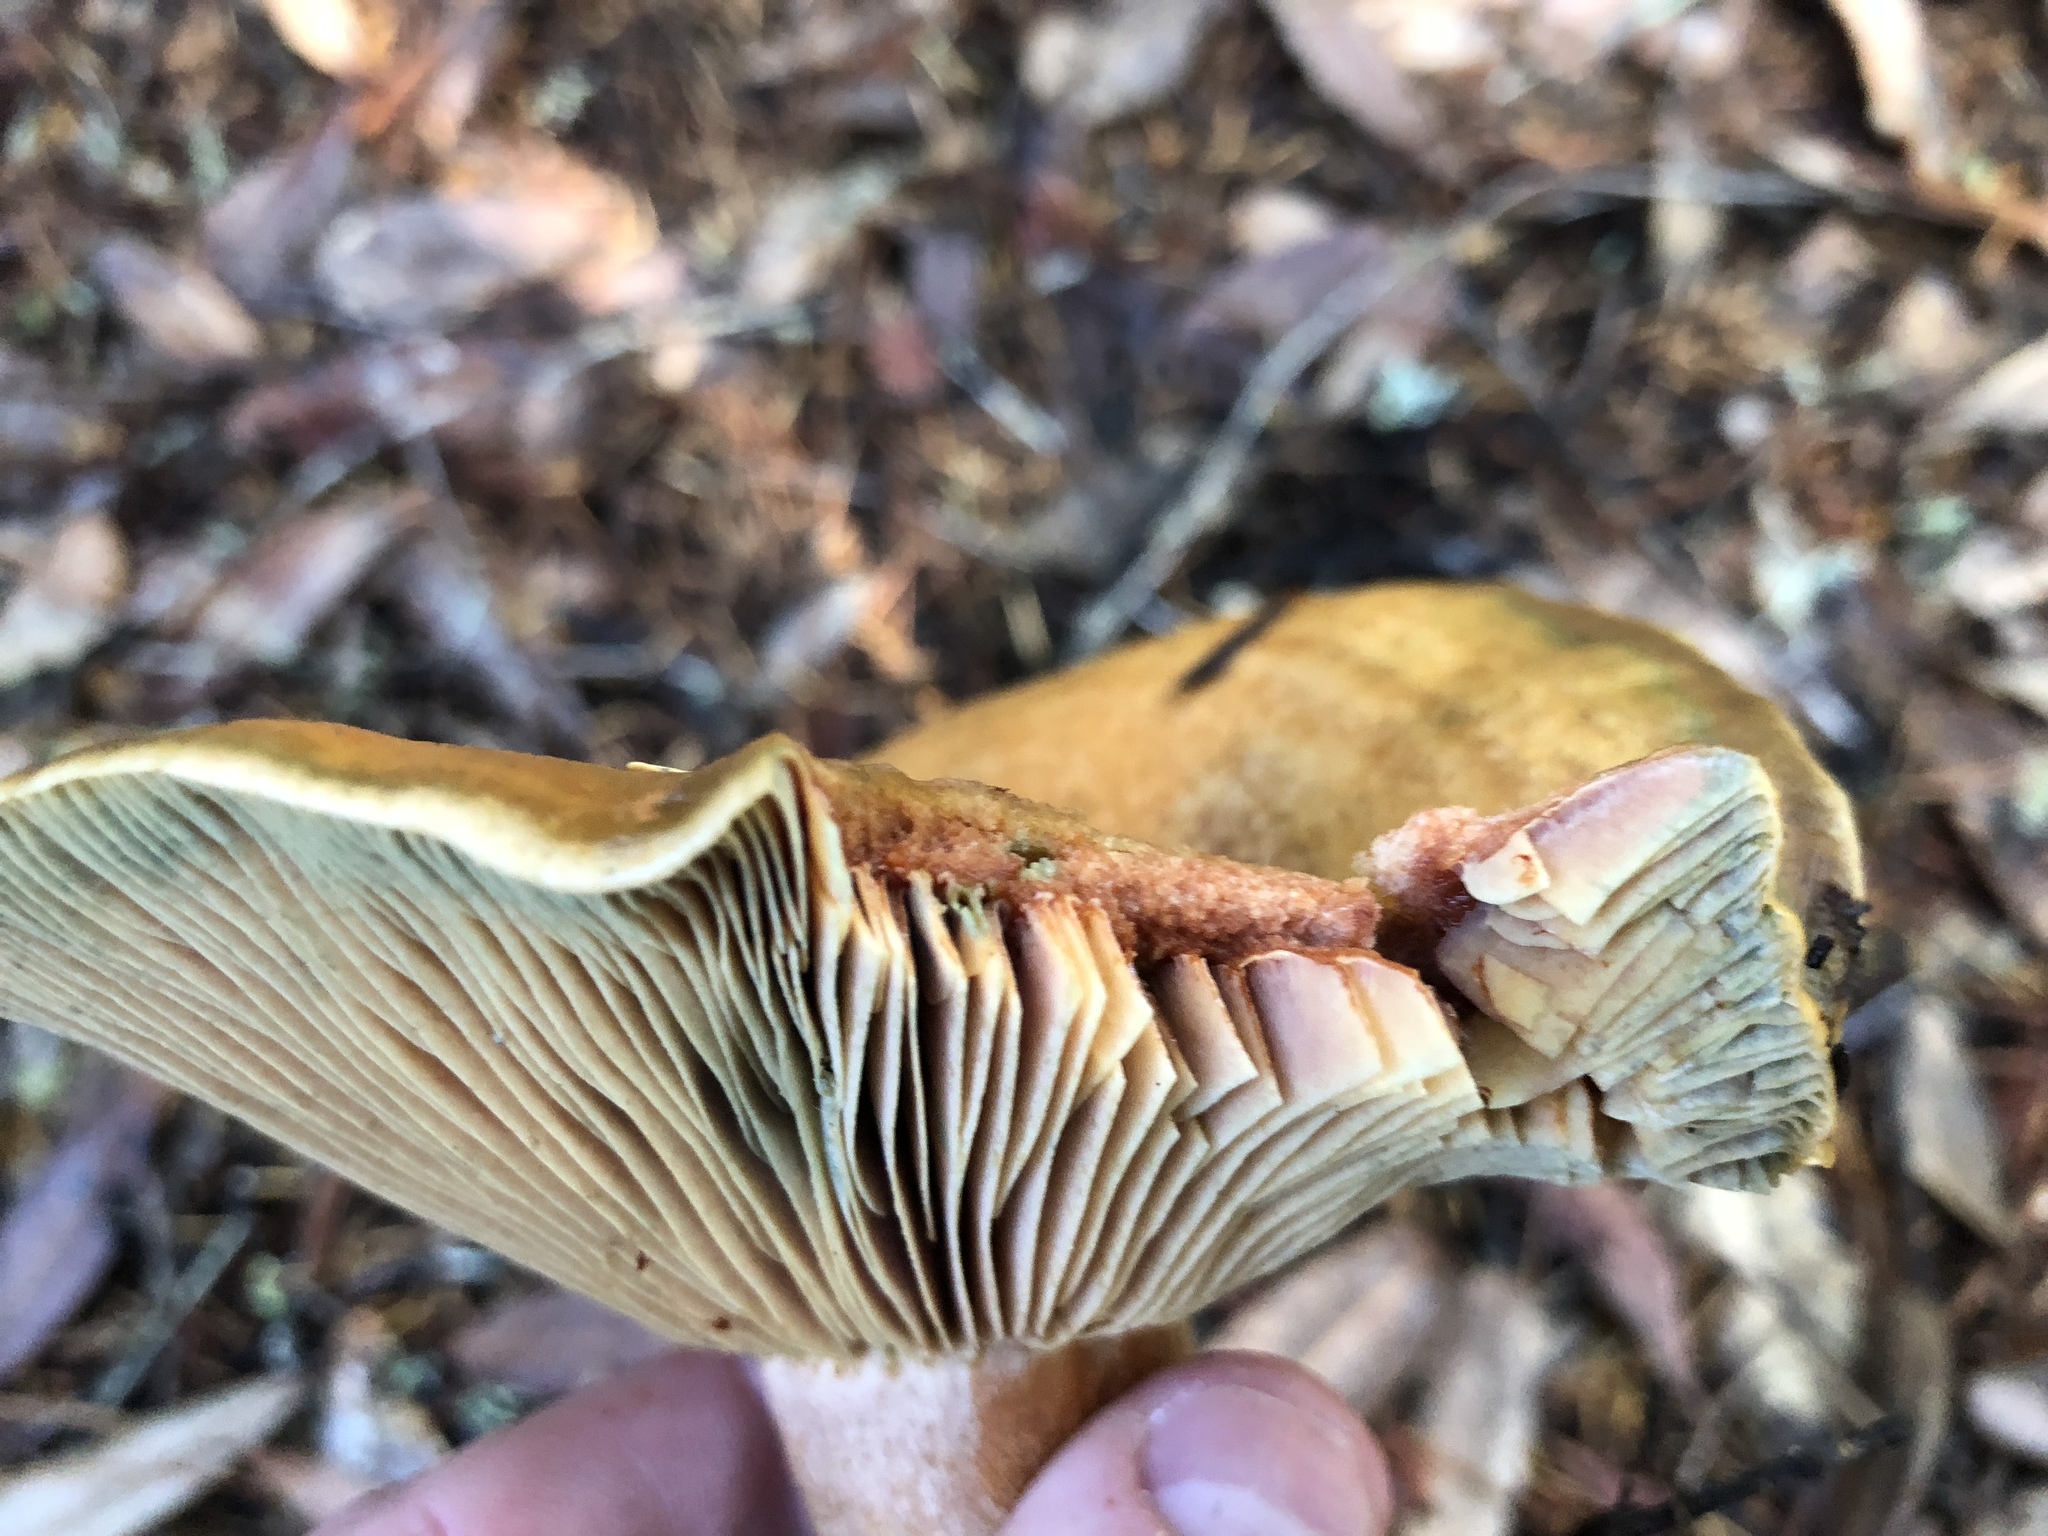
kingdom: Fungi
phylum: Basidiomycota
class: Agaricomycetes
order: Russulales
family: Russulaceae
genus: Lactarius
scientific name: Lactarius rubrilacteus
